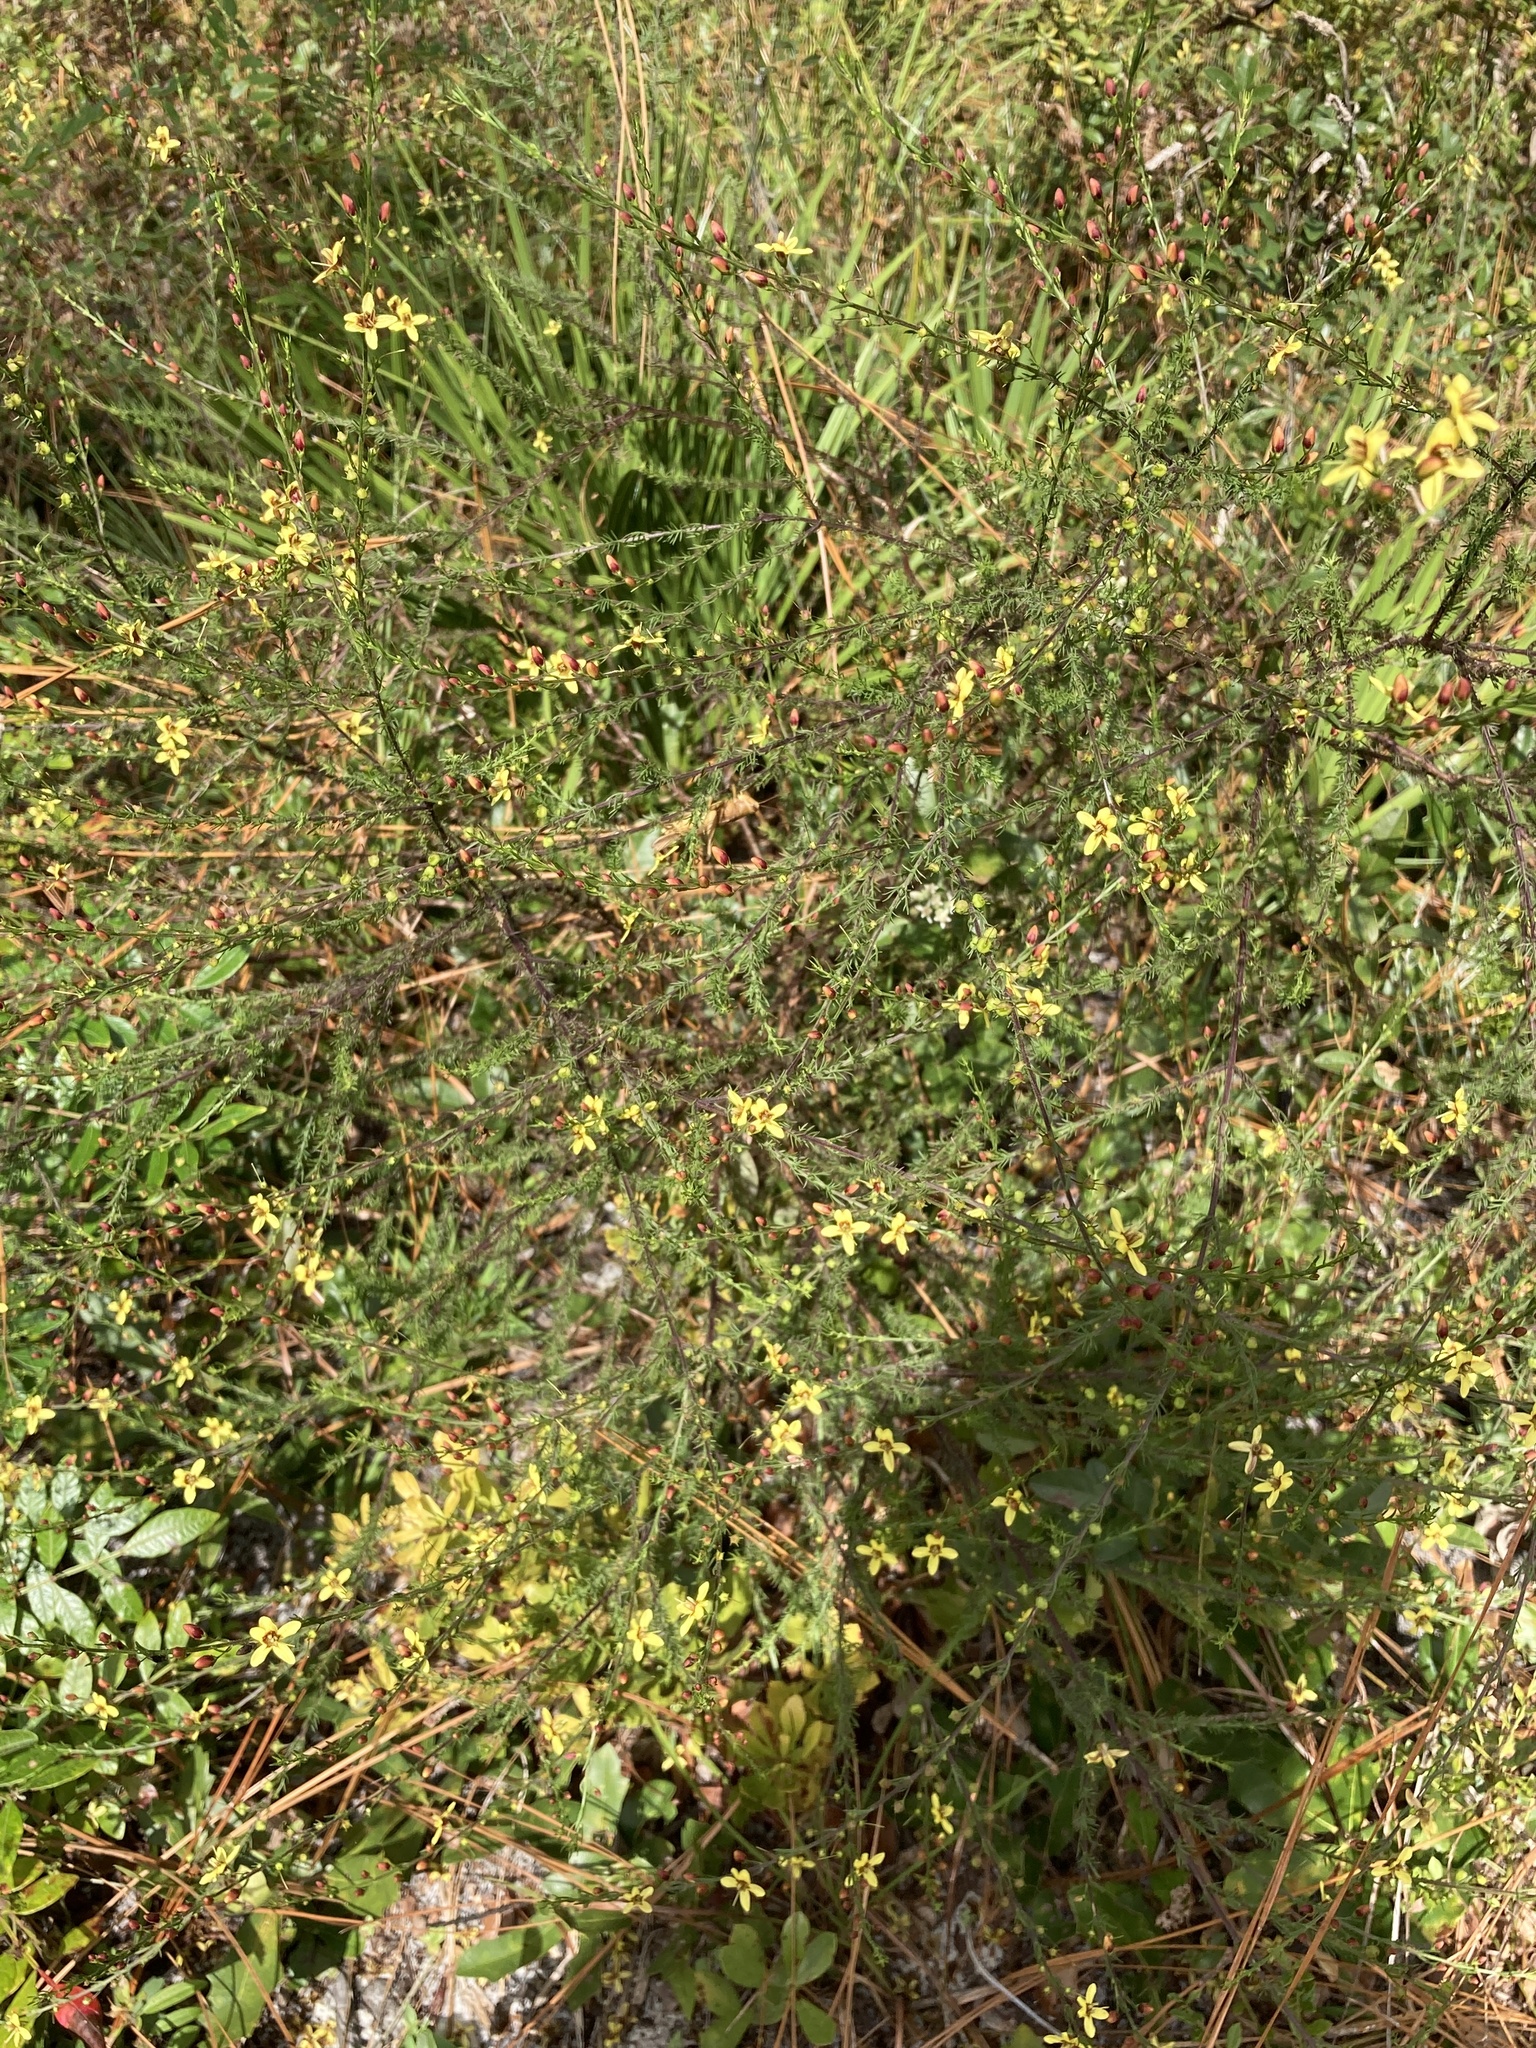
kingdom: Plantae
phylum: Tracheophyta
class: Magnoliopsida
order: Lamiales
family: Orobanchaceae
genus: Seymeria
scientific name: Seymeria cassioides
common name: Yaupon black-senna
